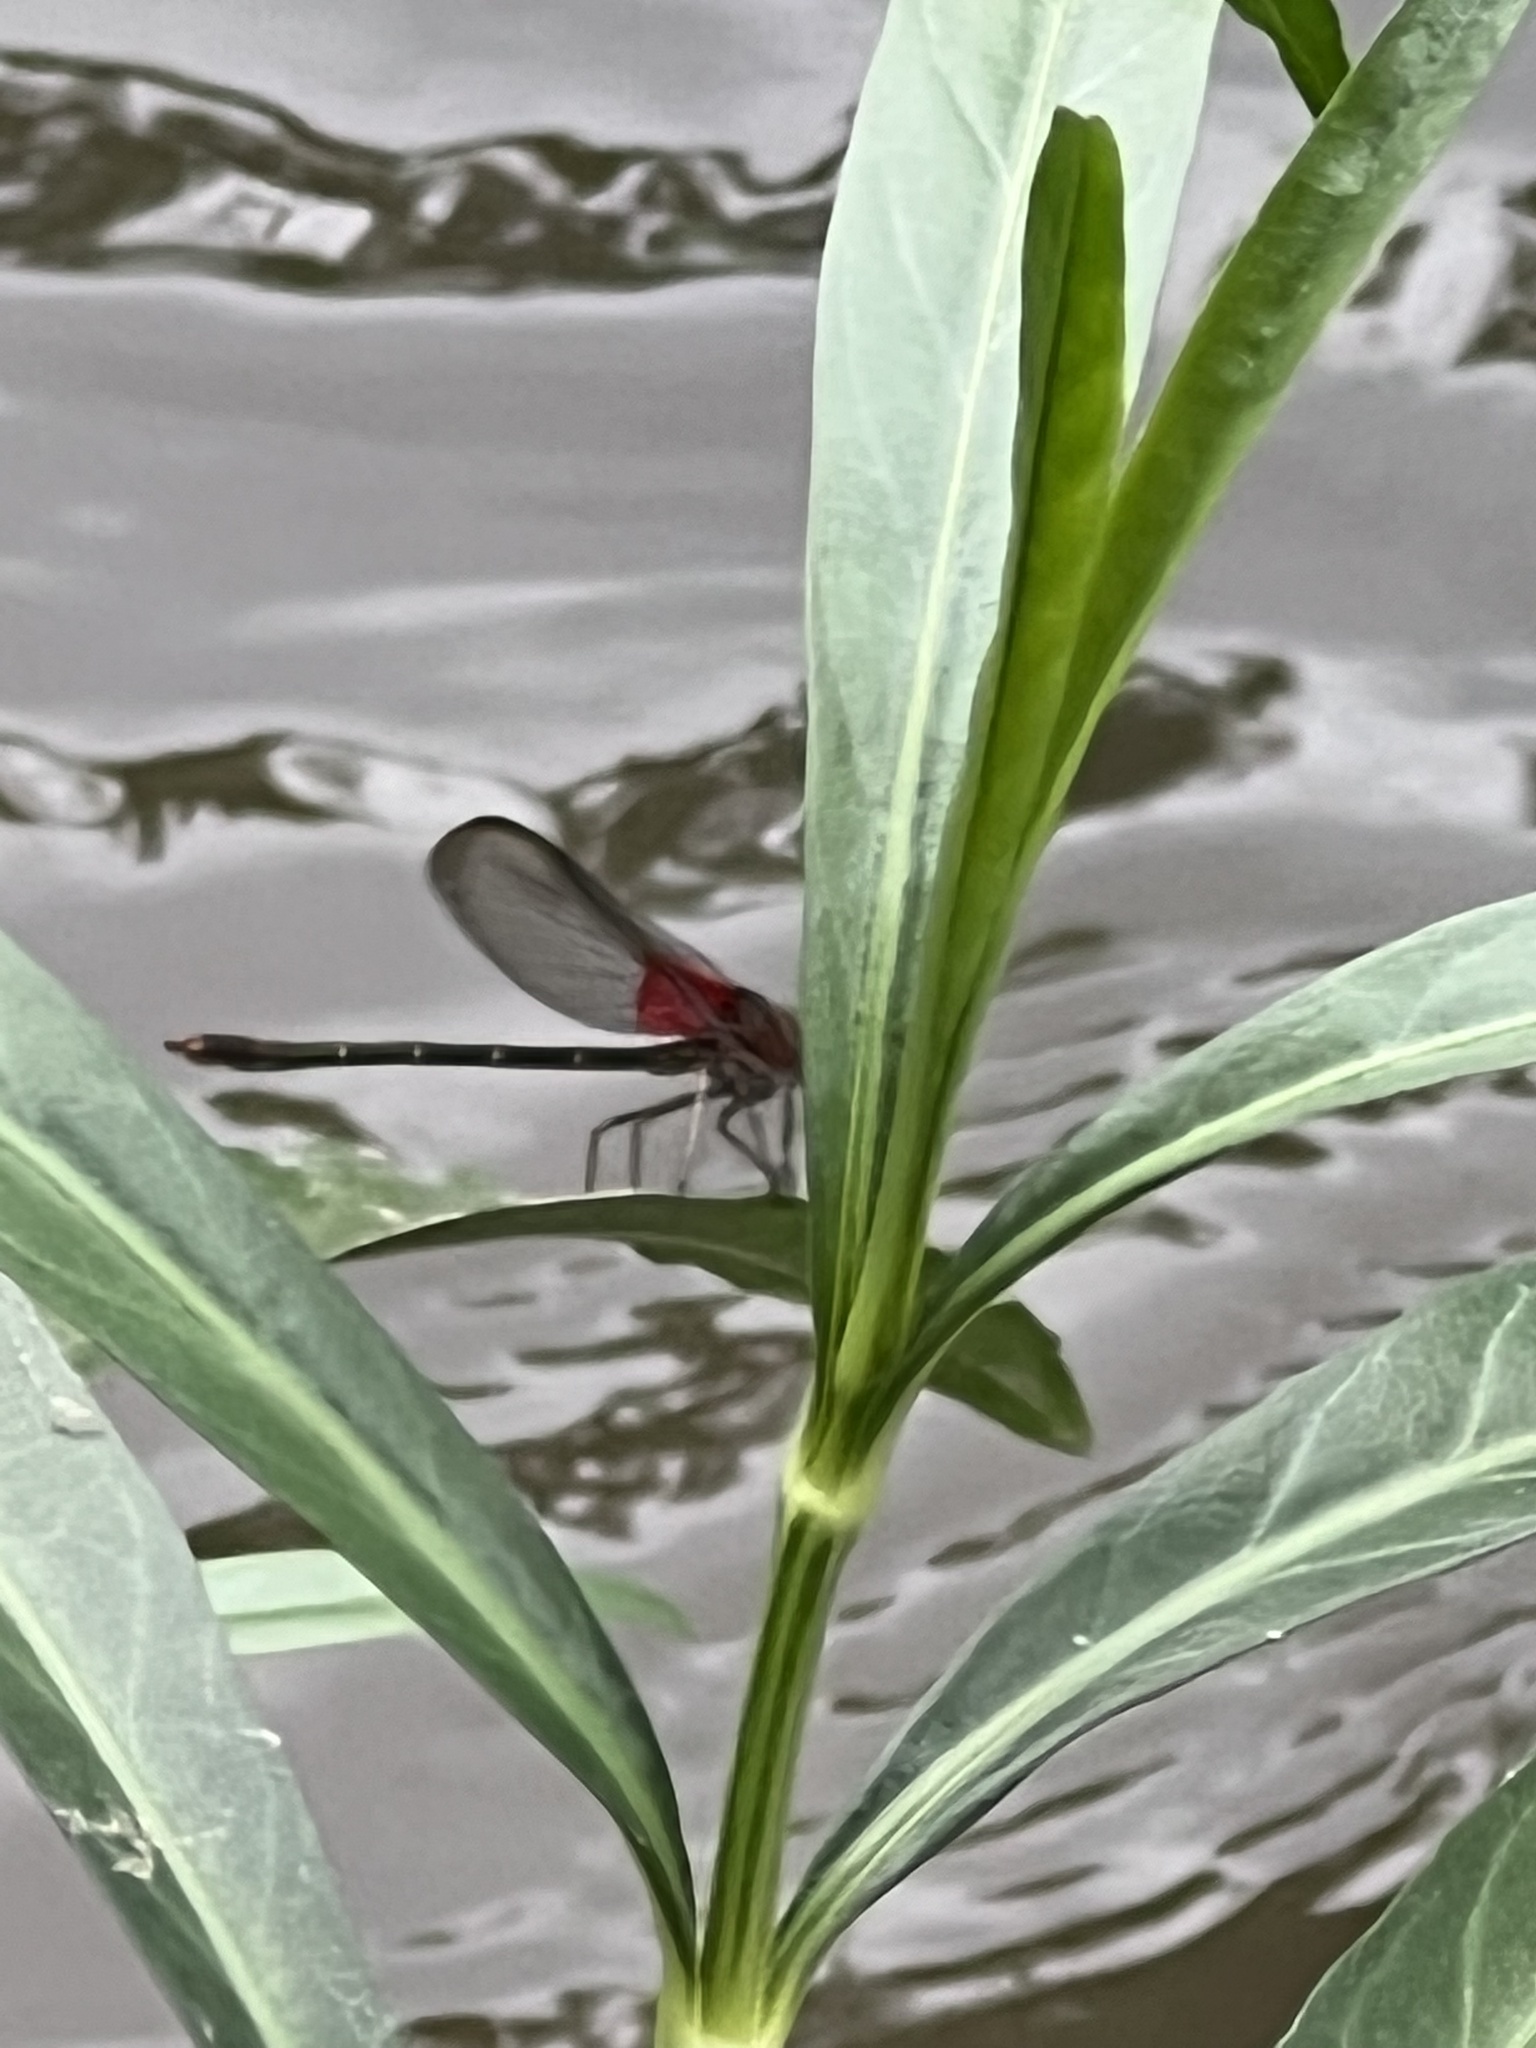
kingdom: Animalia
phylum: Arthropoda
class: Insecta
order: Odonata
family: Calopterygidae
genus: Hetaerina
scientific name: Hetaerina americana
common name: American rubyspot
